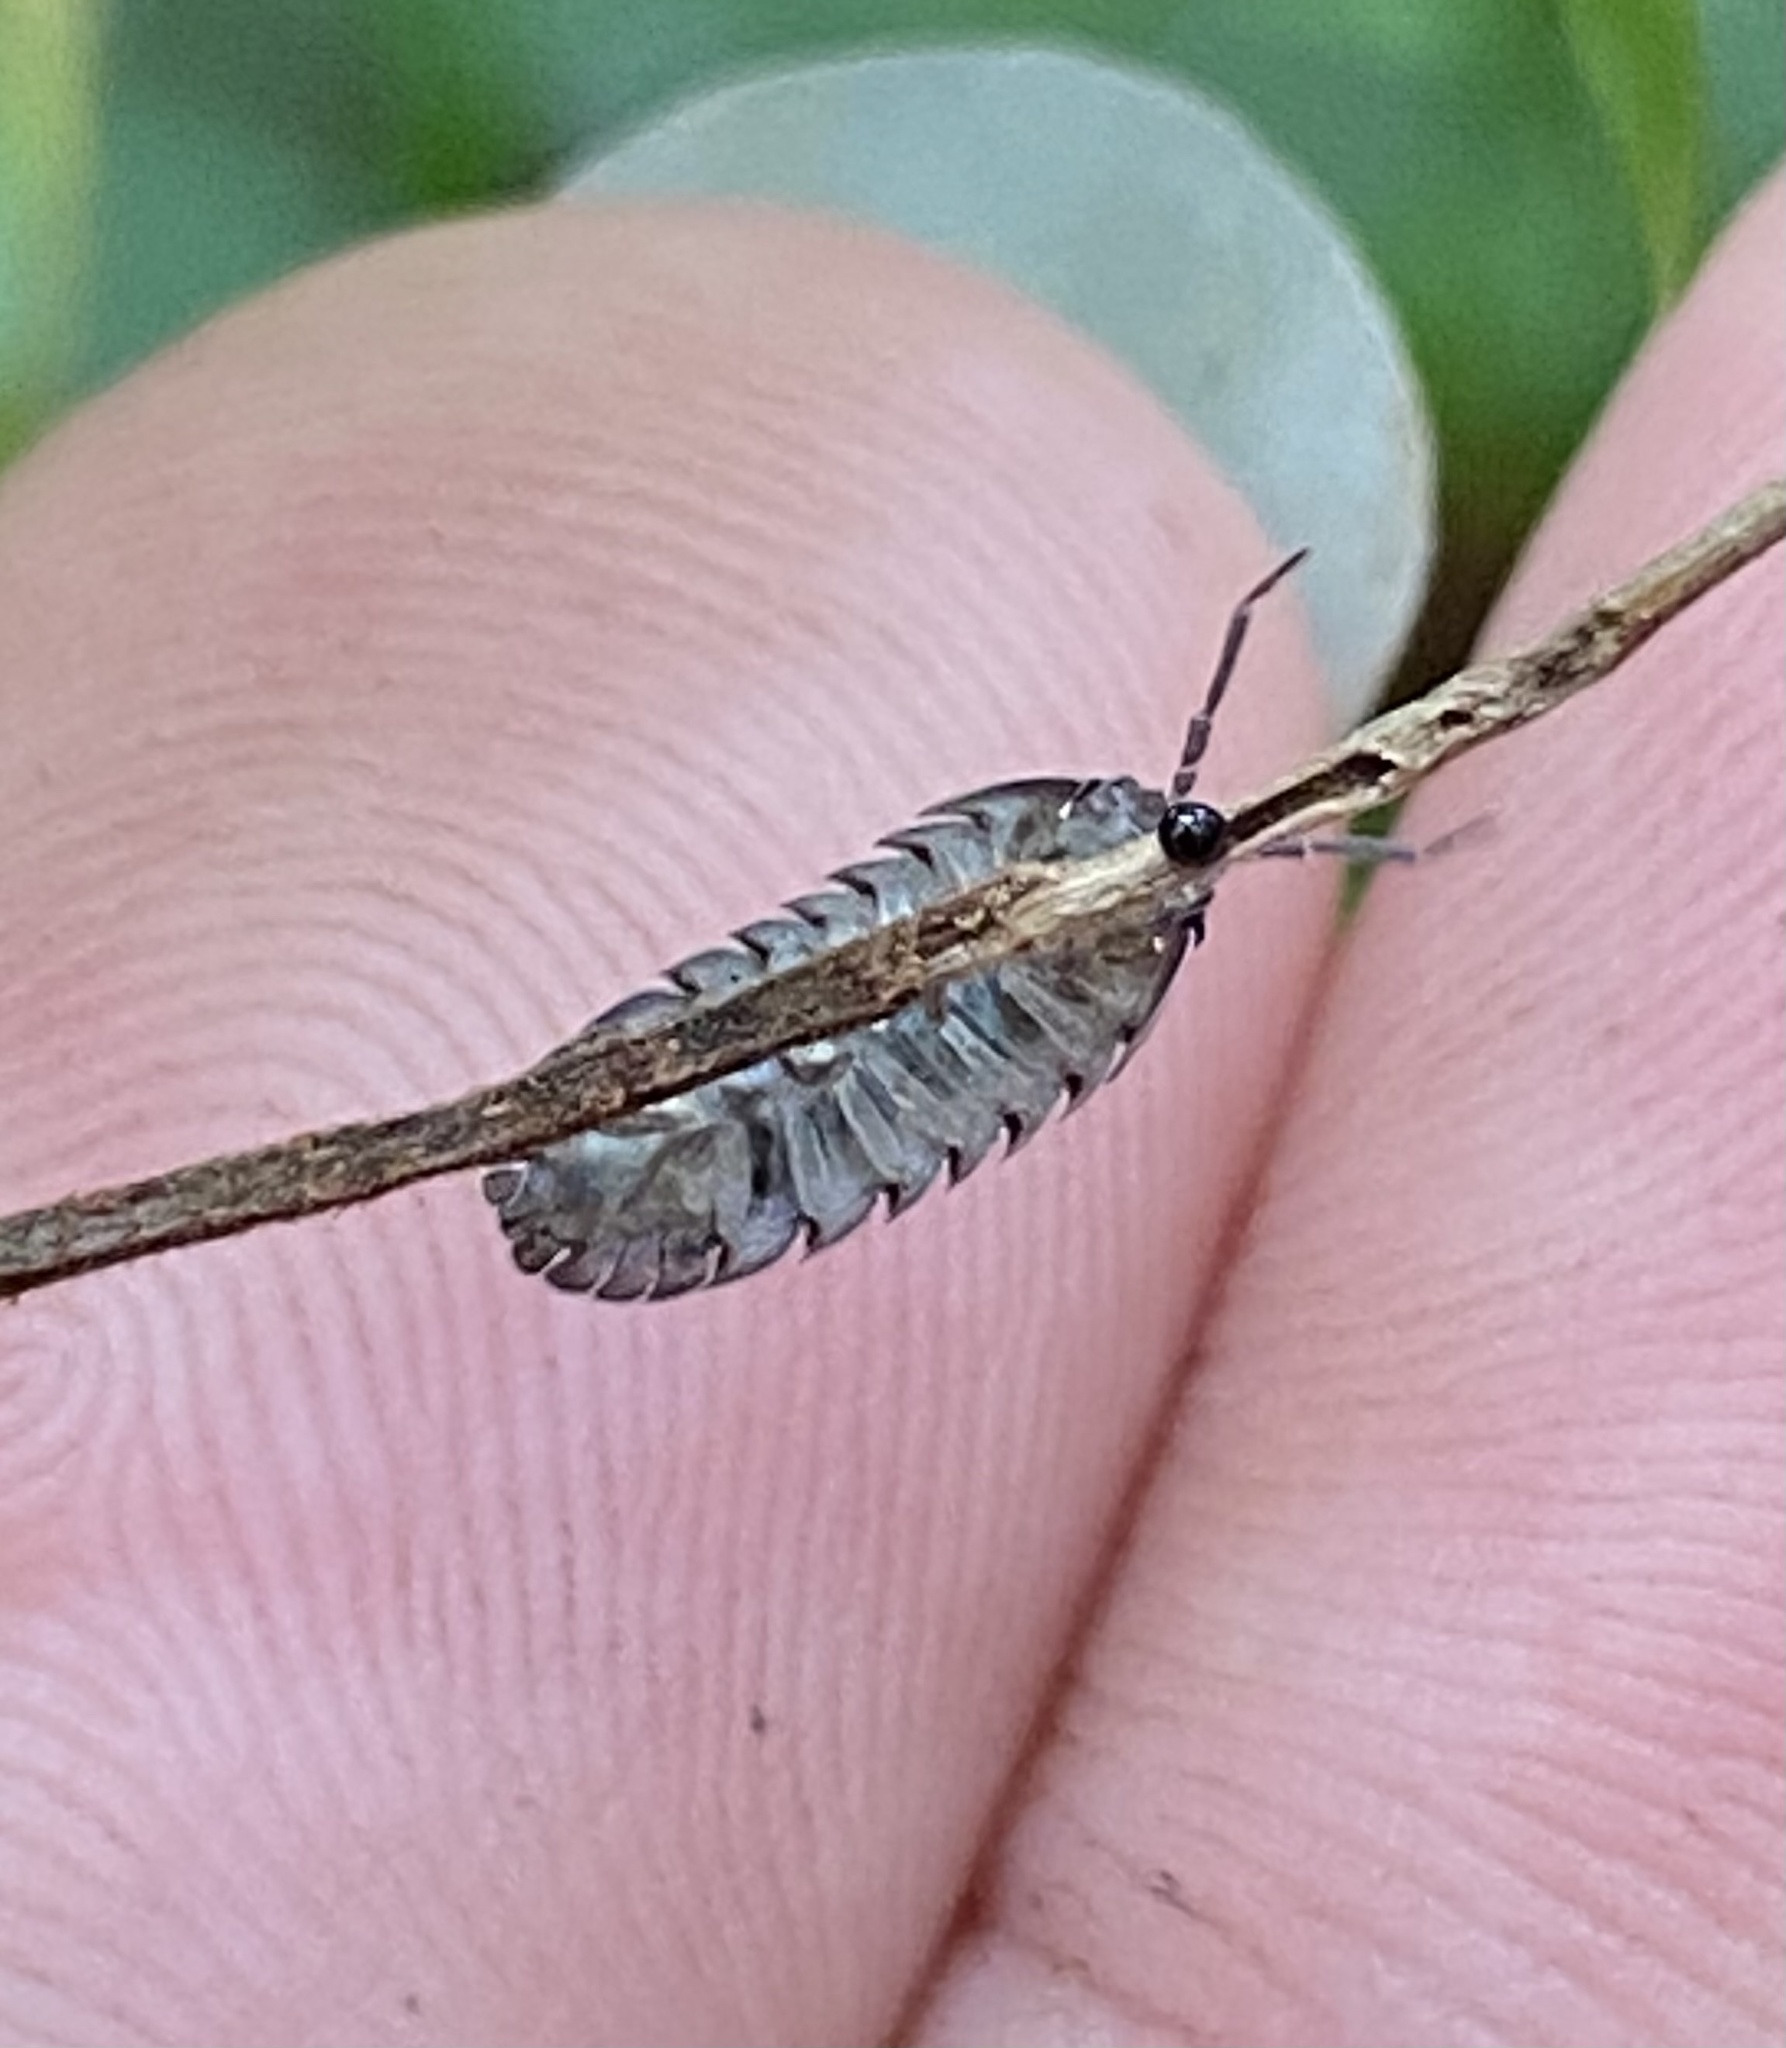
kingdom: Animalia
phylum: Arthropoda
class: Malacostraca
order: Isopoda
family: Armadillidiidae
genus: Armadillidium
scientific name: Armadillidium nasatum
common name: Isopod
